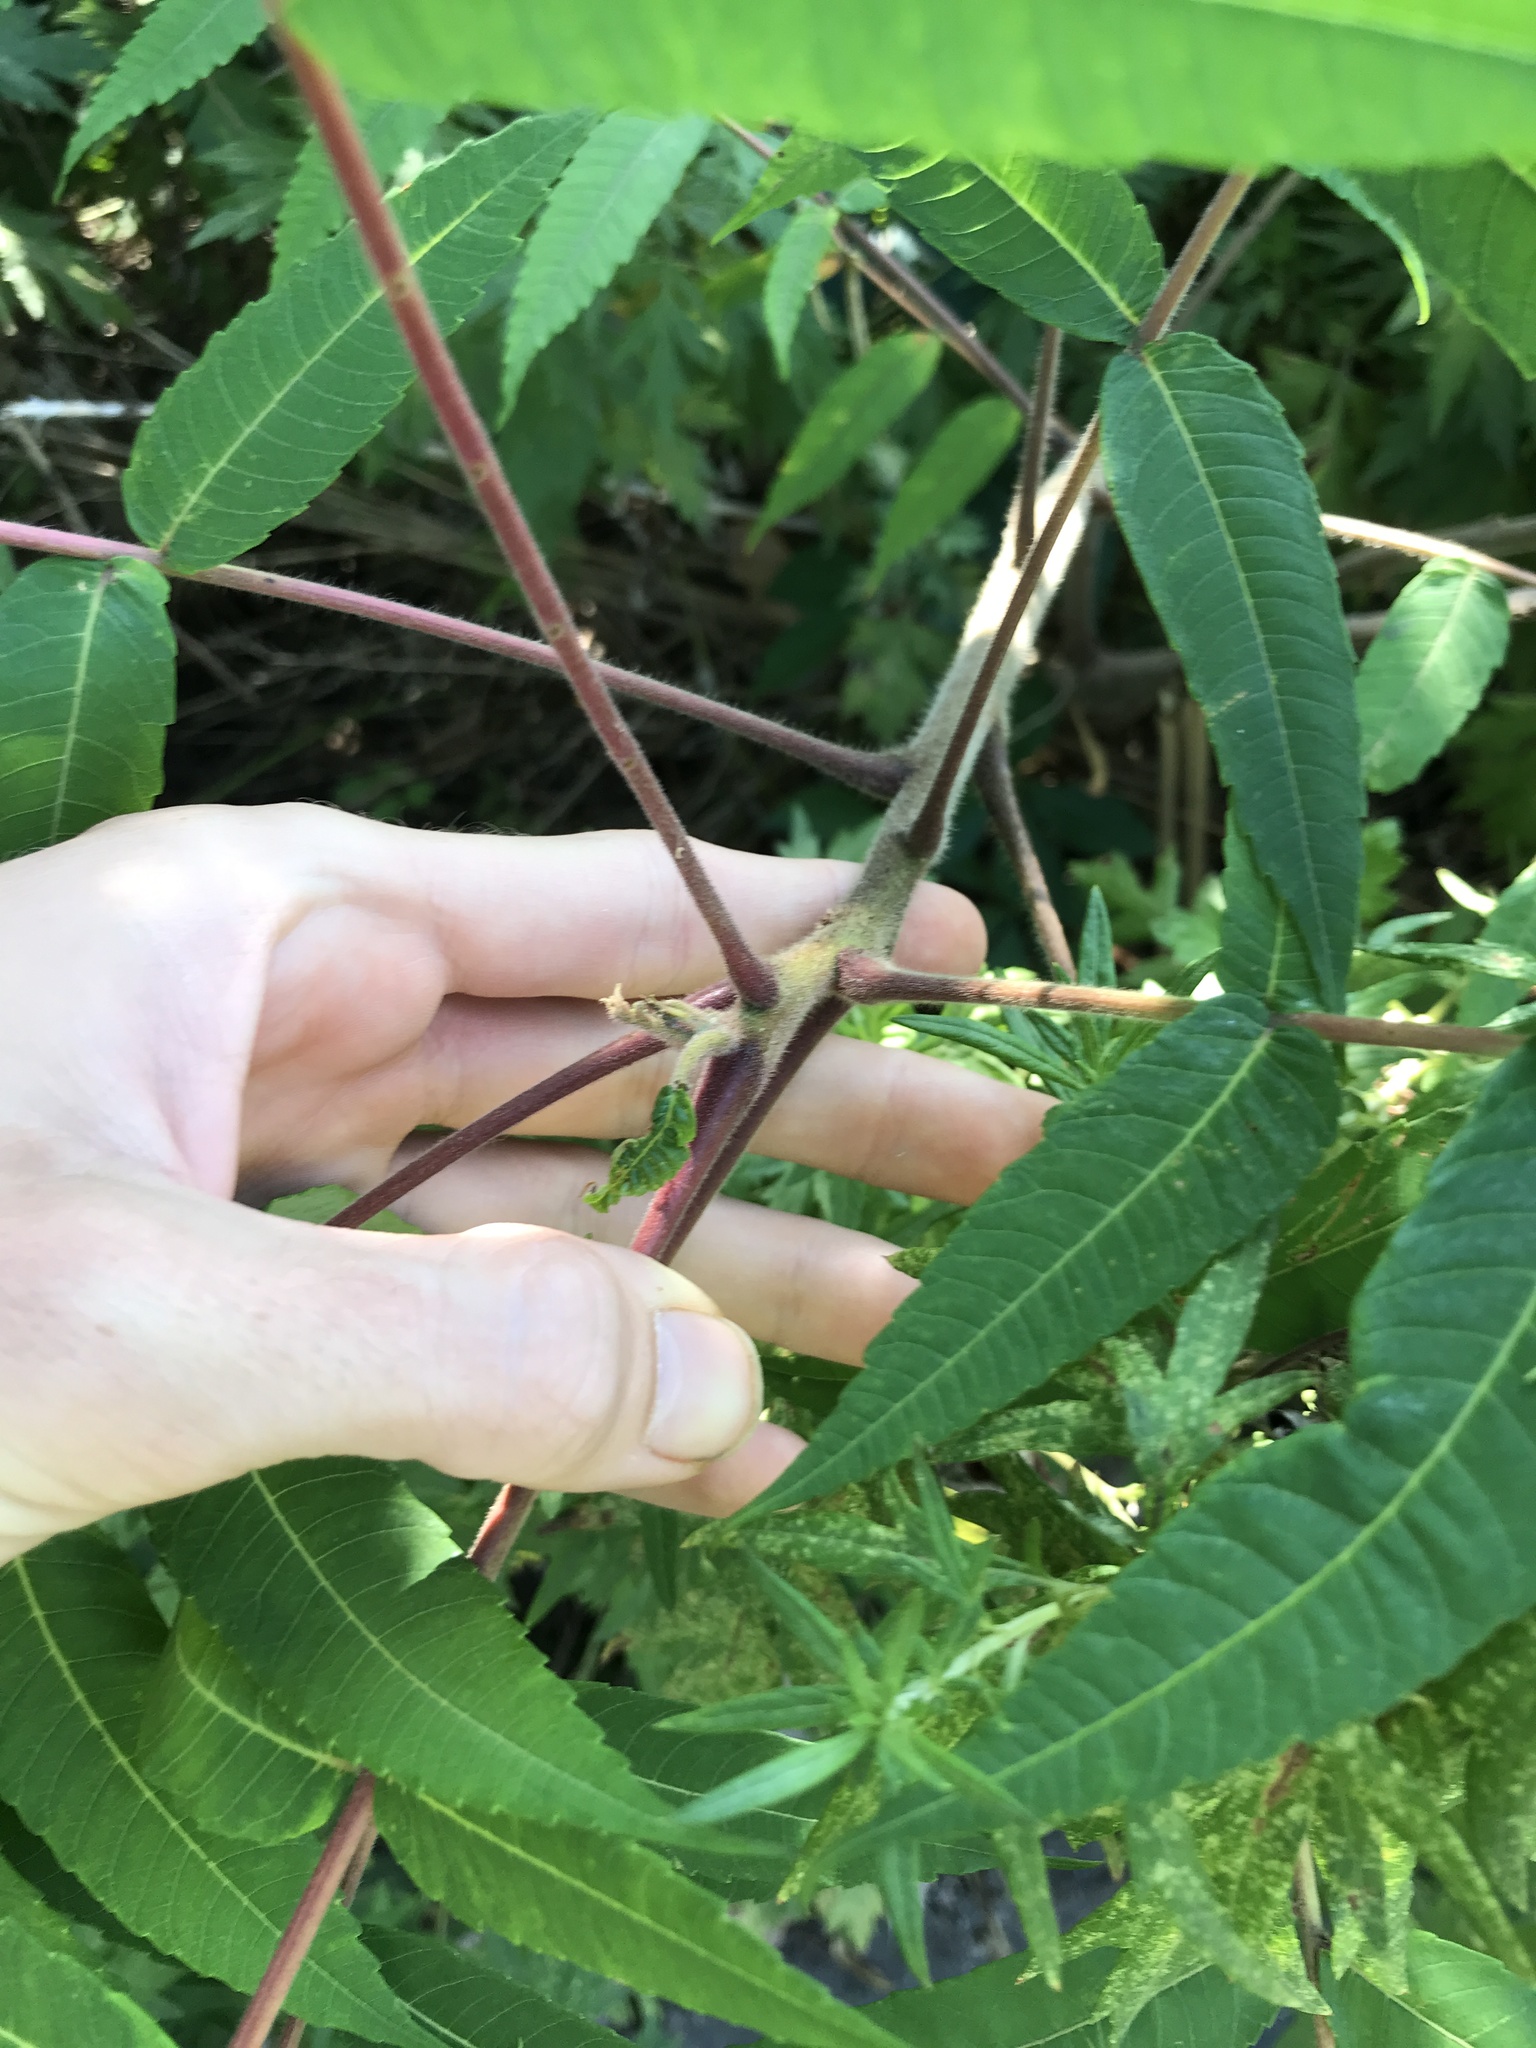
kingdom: Plantae
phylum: Tracheophyta
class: Magnoliopsida
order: Sapindales
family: Anacardiaceae
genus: Rhus
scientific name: Rhus typhina
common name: Staghorn sumac
